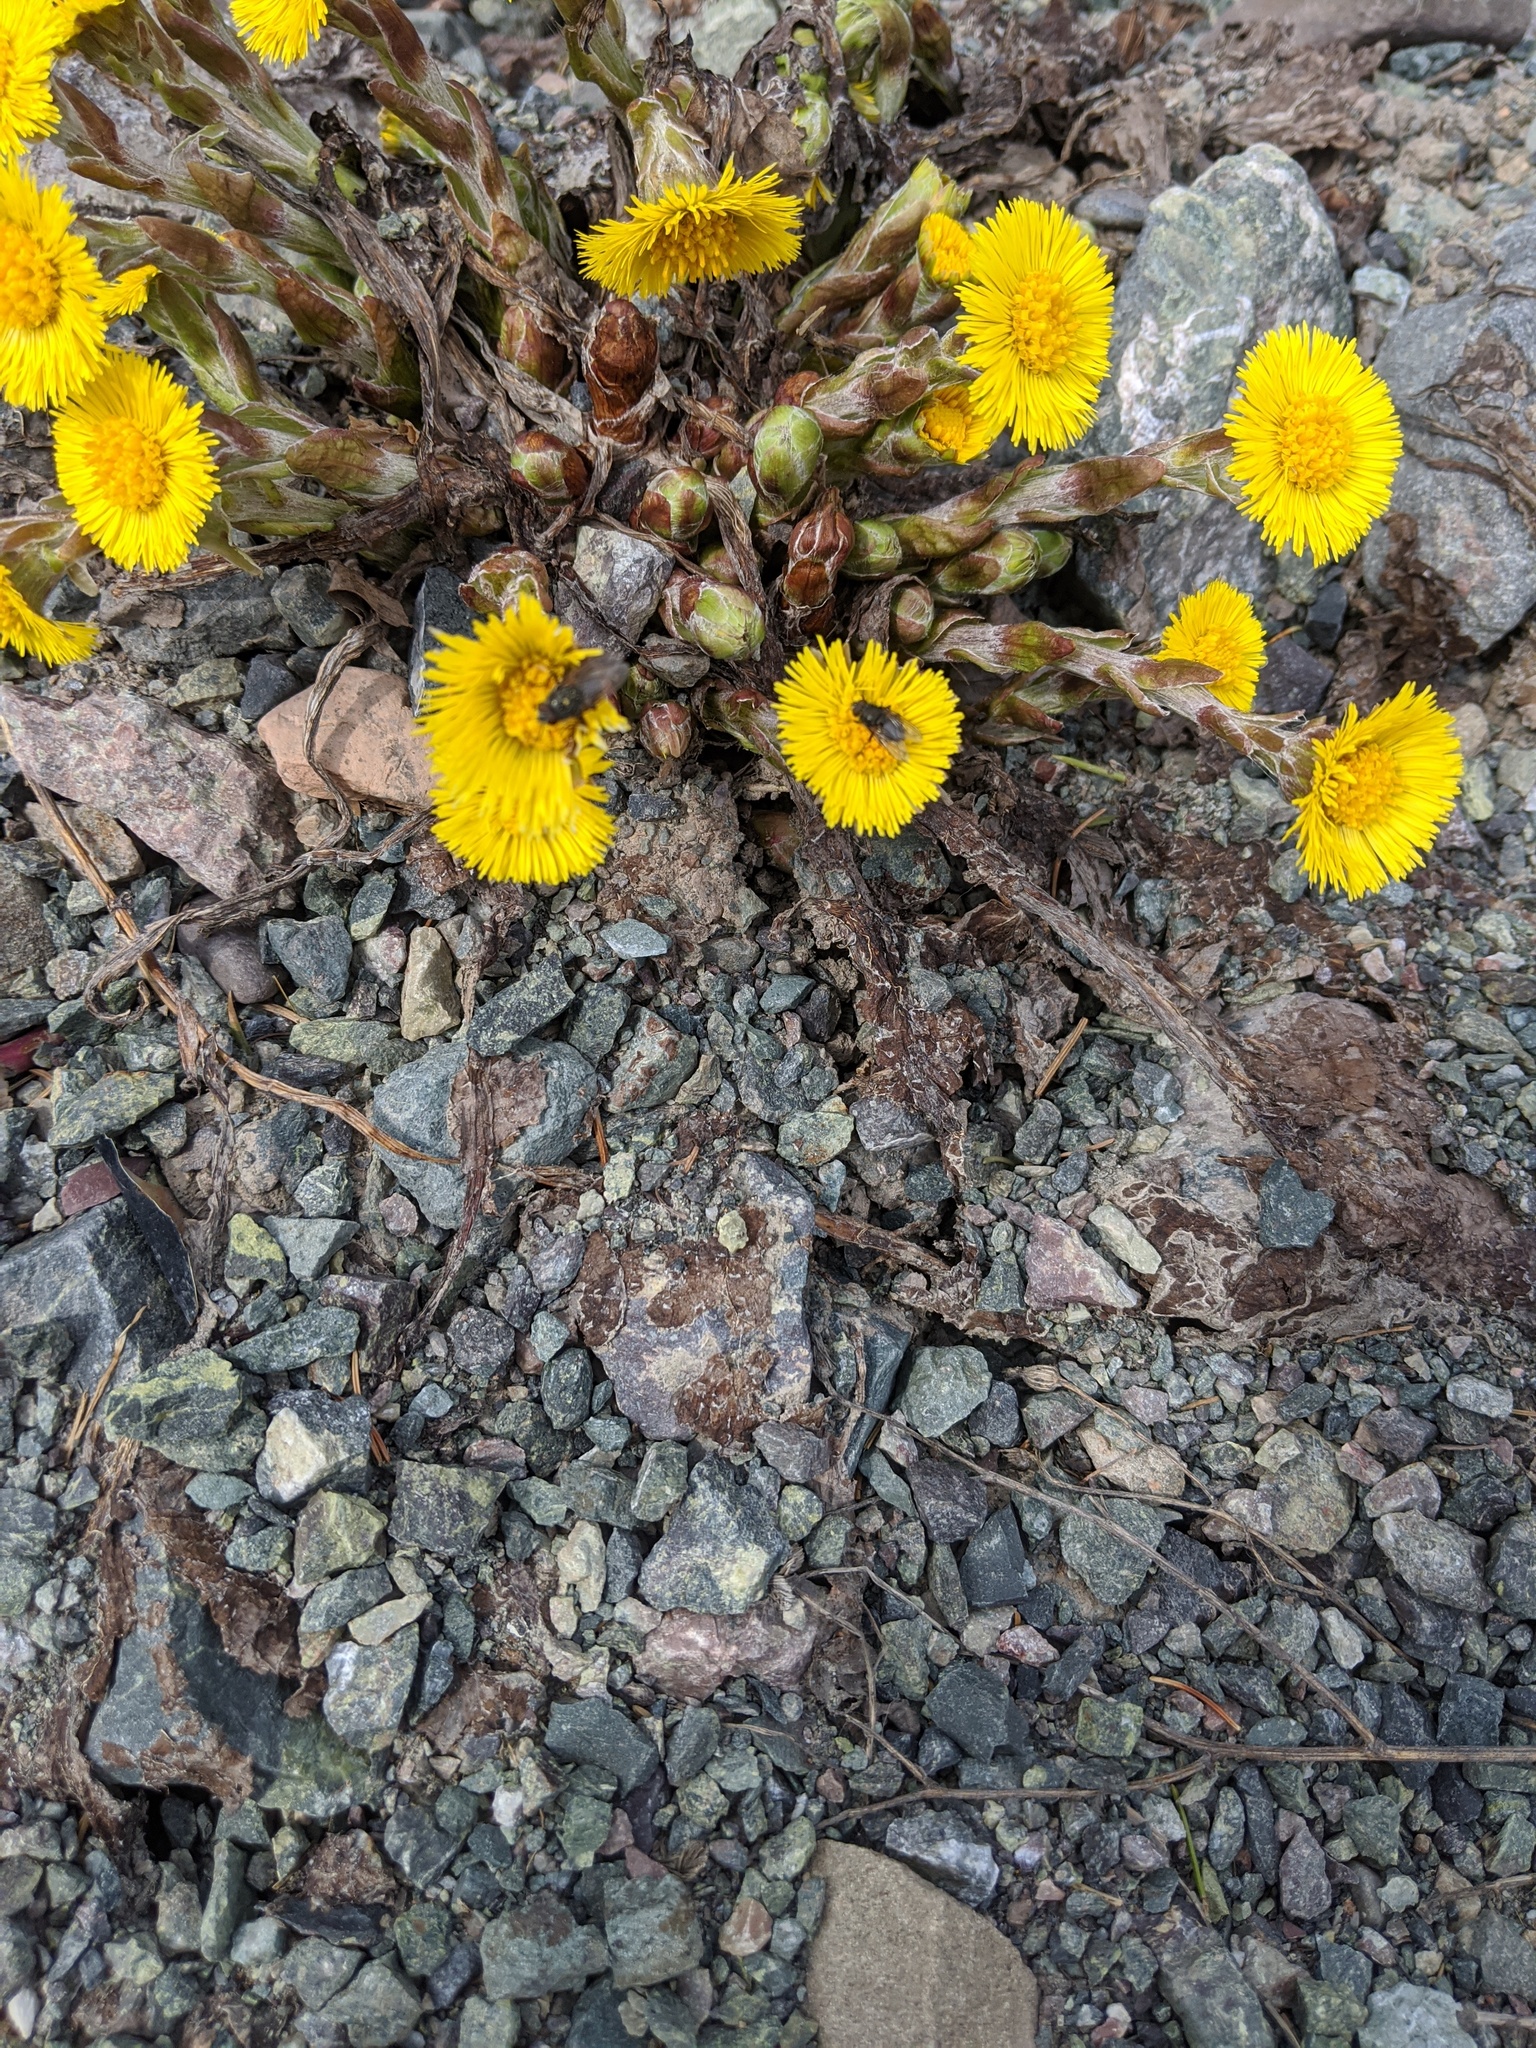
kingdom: Plantae
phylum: Tracheophyta
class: Magnoliopsida
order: Asterales
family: Asteraceae
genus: Tussilago
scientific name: Tussilago farfara
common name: Coltsfoot
